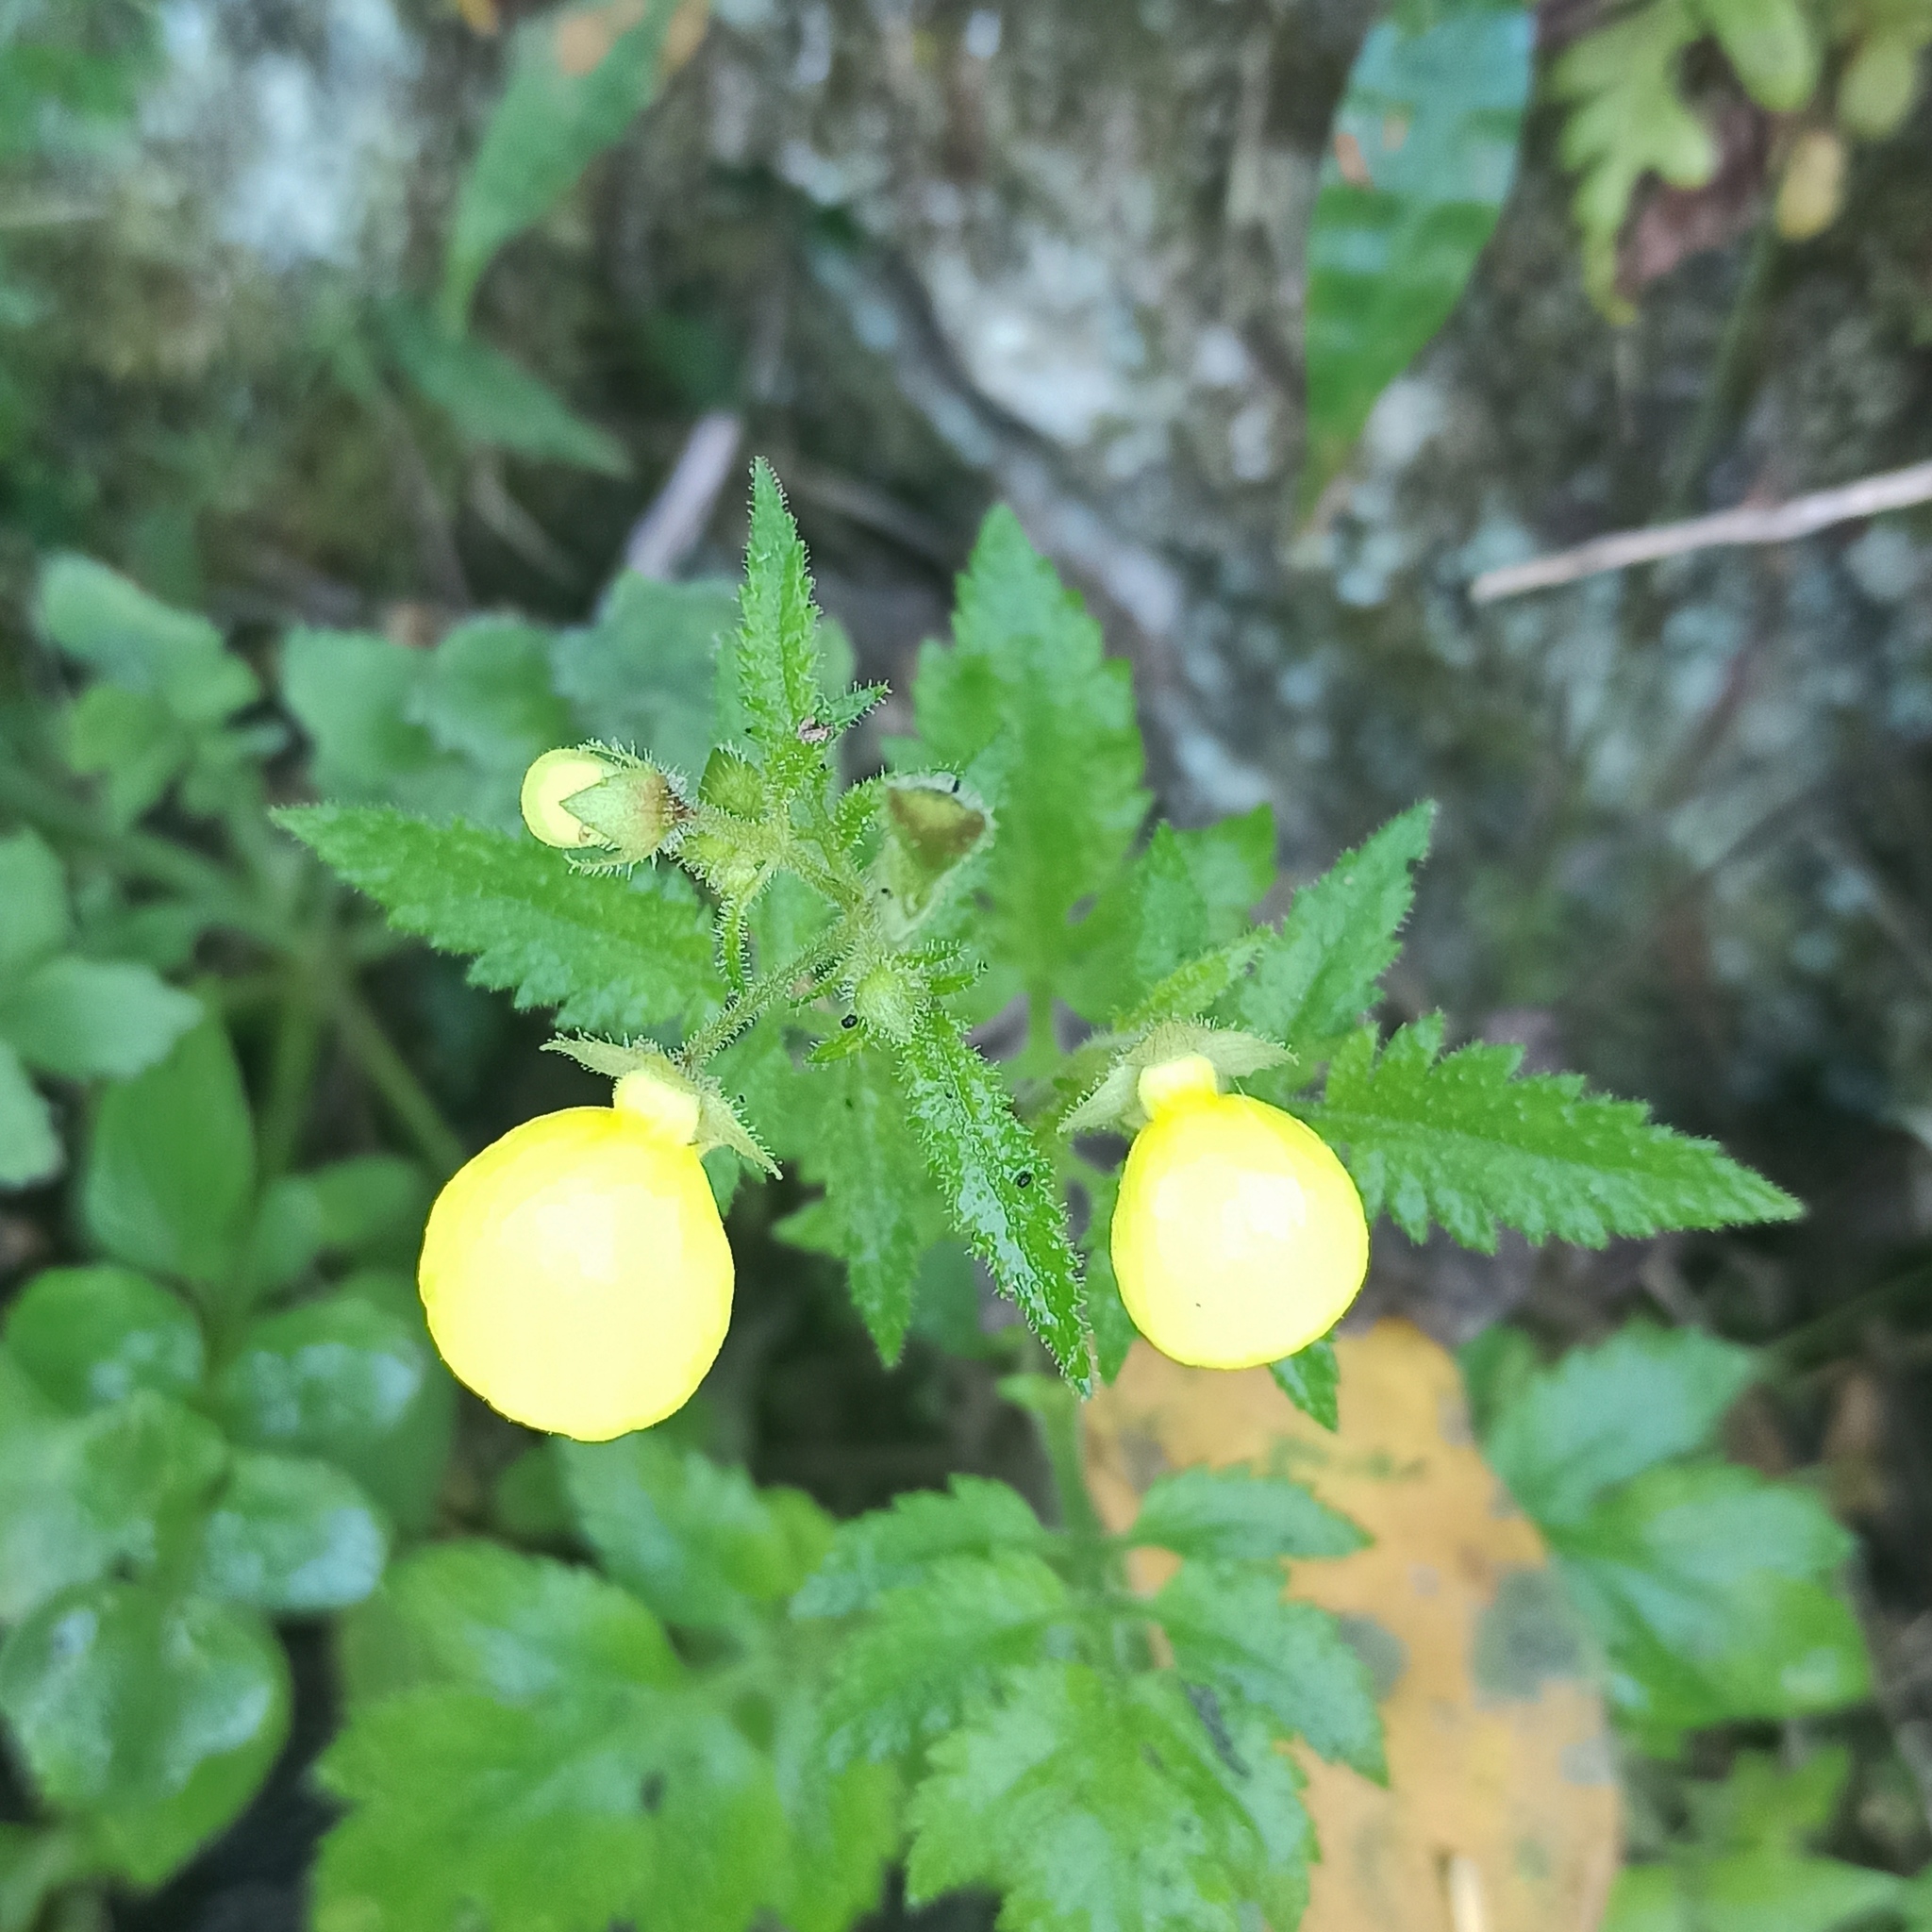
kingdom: Plantae
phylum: Tracheophyta
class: Magnoliopsida
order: Lamiales
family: Calceolariaceae
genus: Calceolaria
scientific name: Calceolaria tripartita
